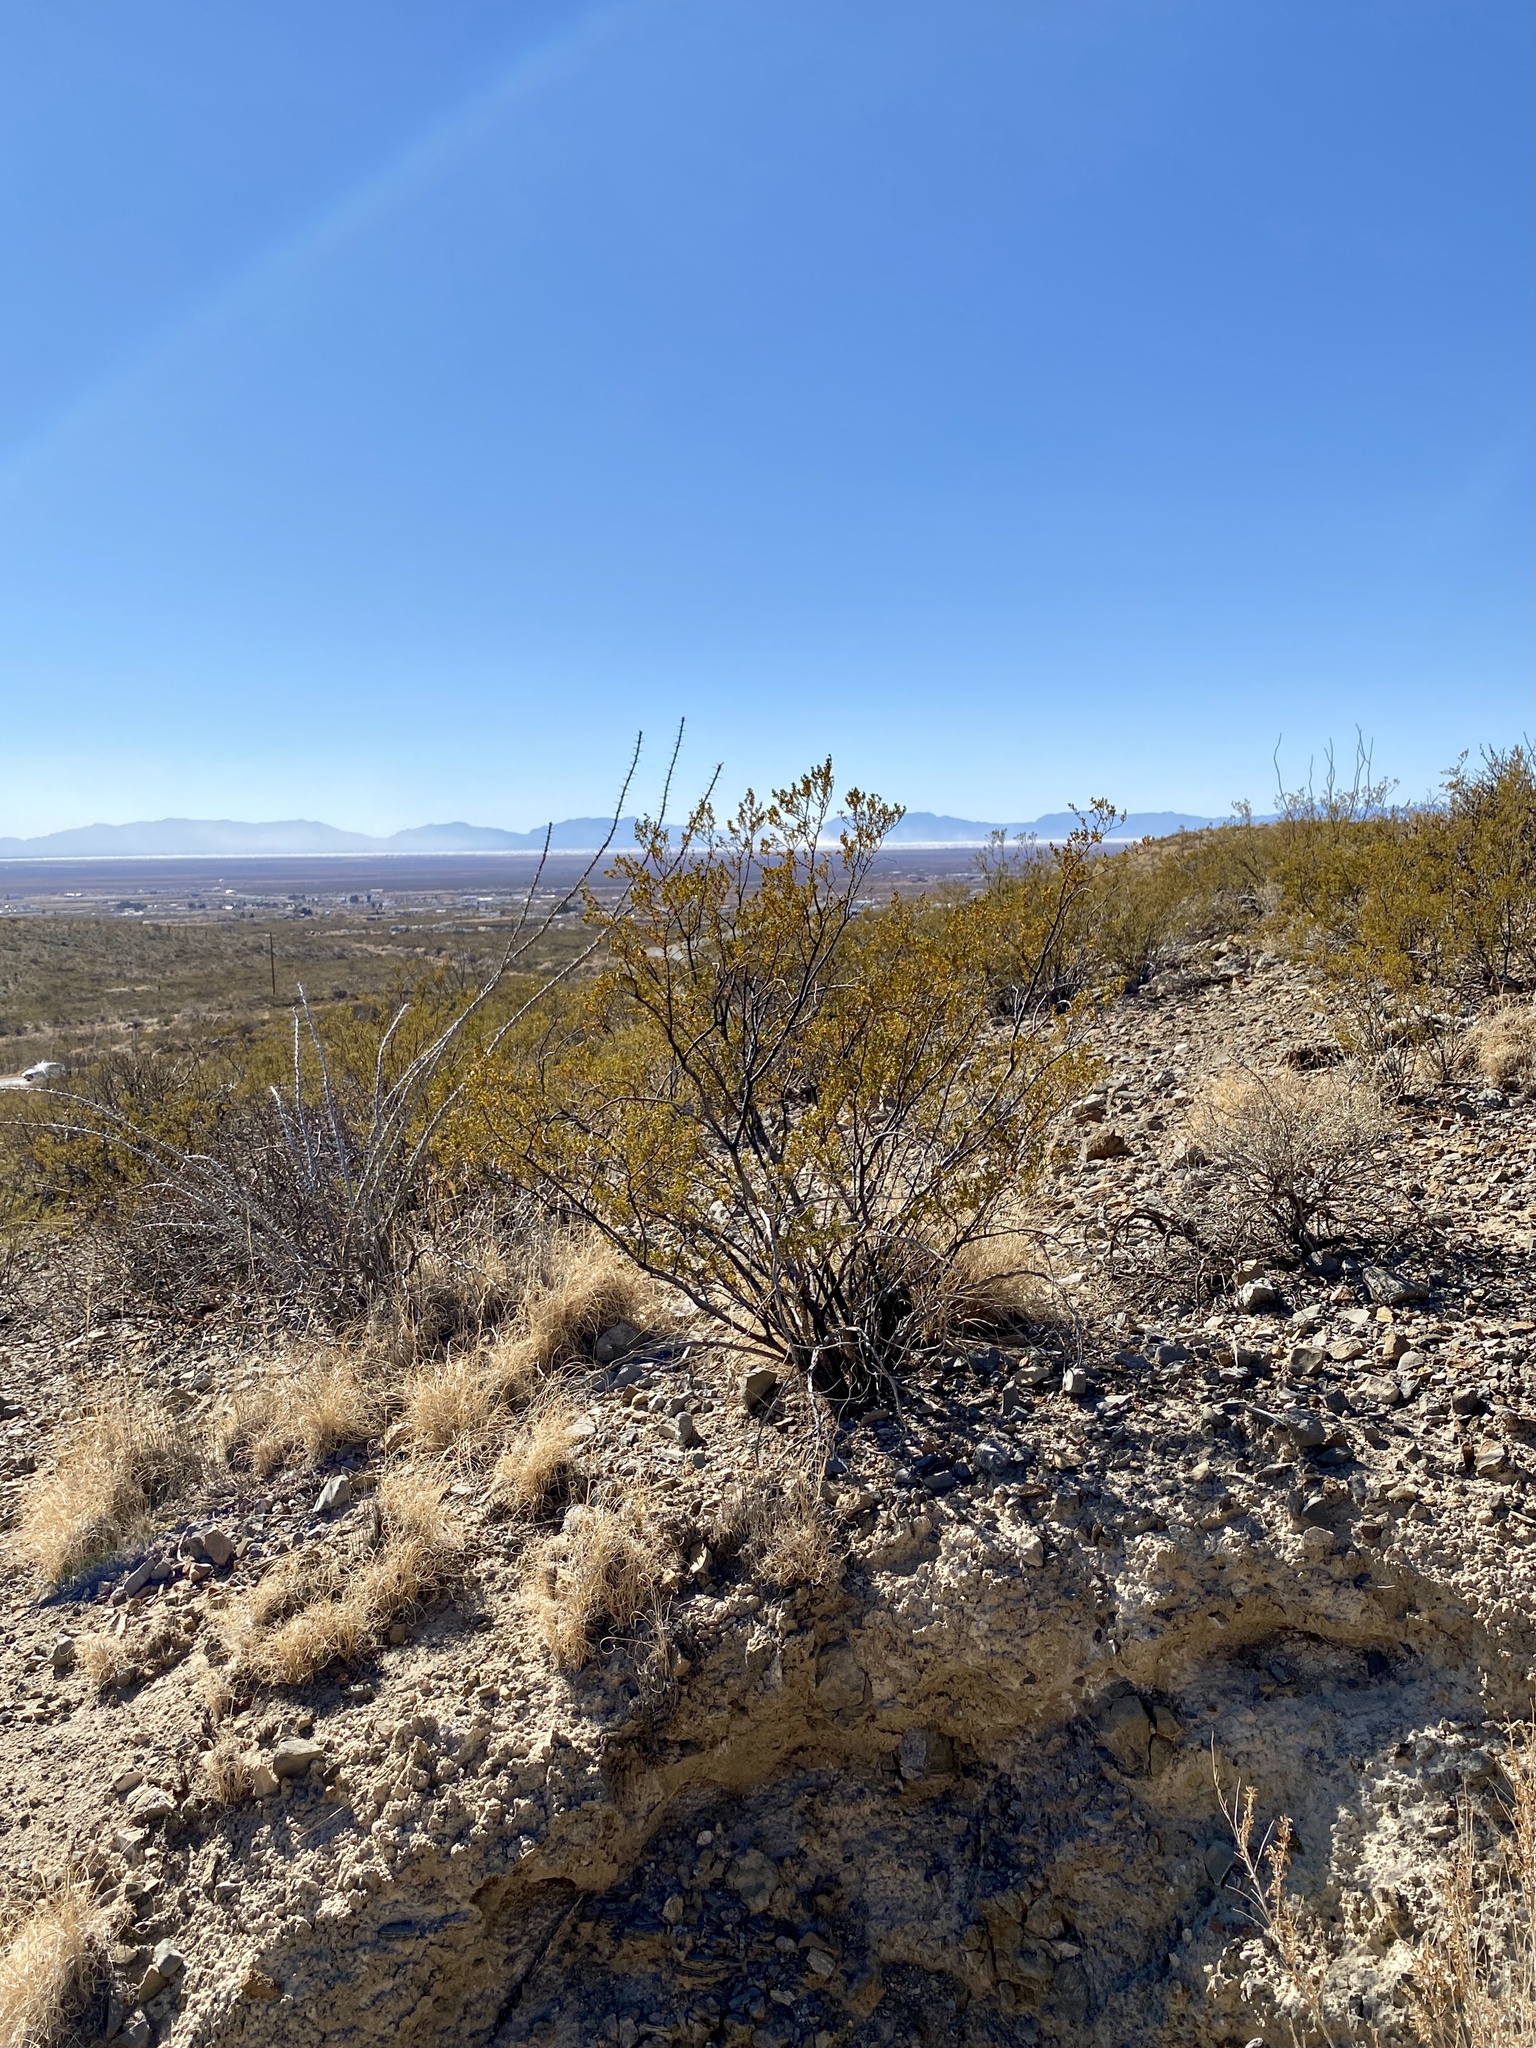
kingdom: Plantae
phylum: Tracheophyta
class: Magnoliopsida
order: Zygophyllales
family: Zygophyllaceae
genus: Larrea
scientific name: Larrea tridentata
